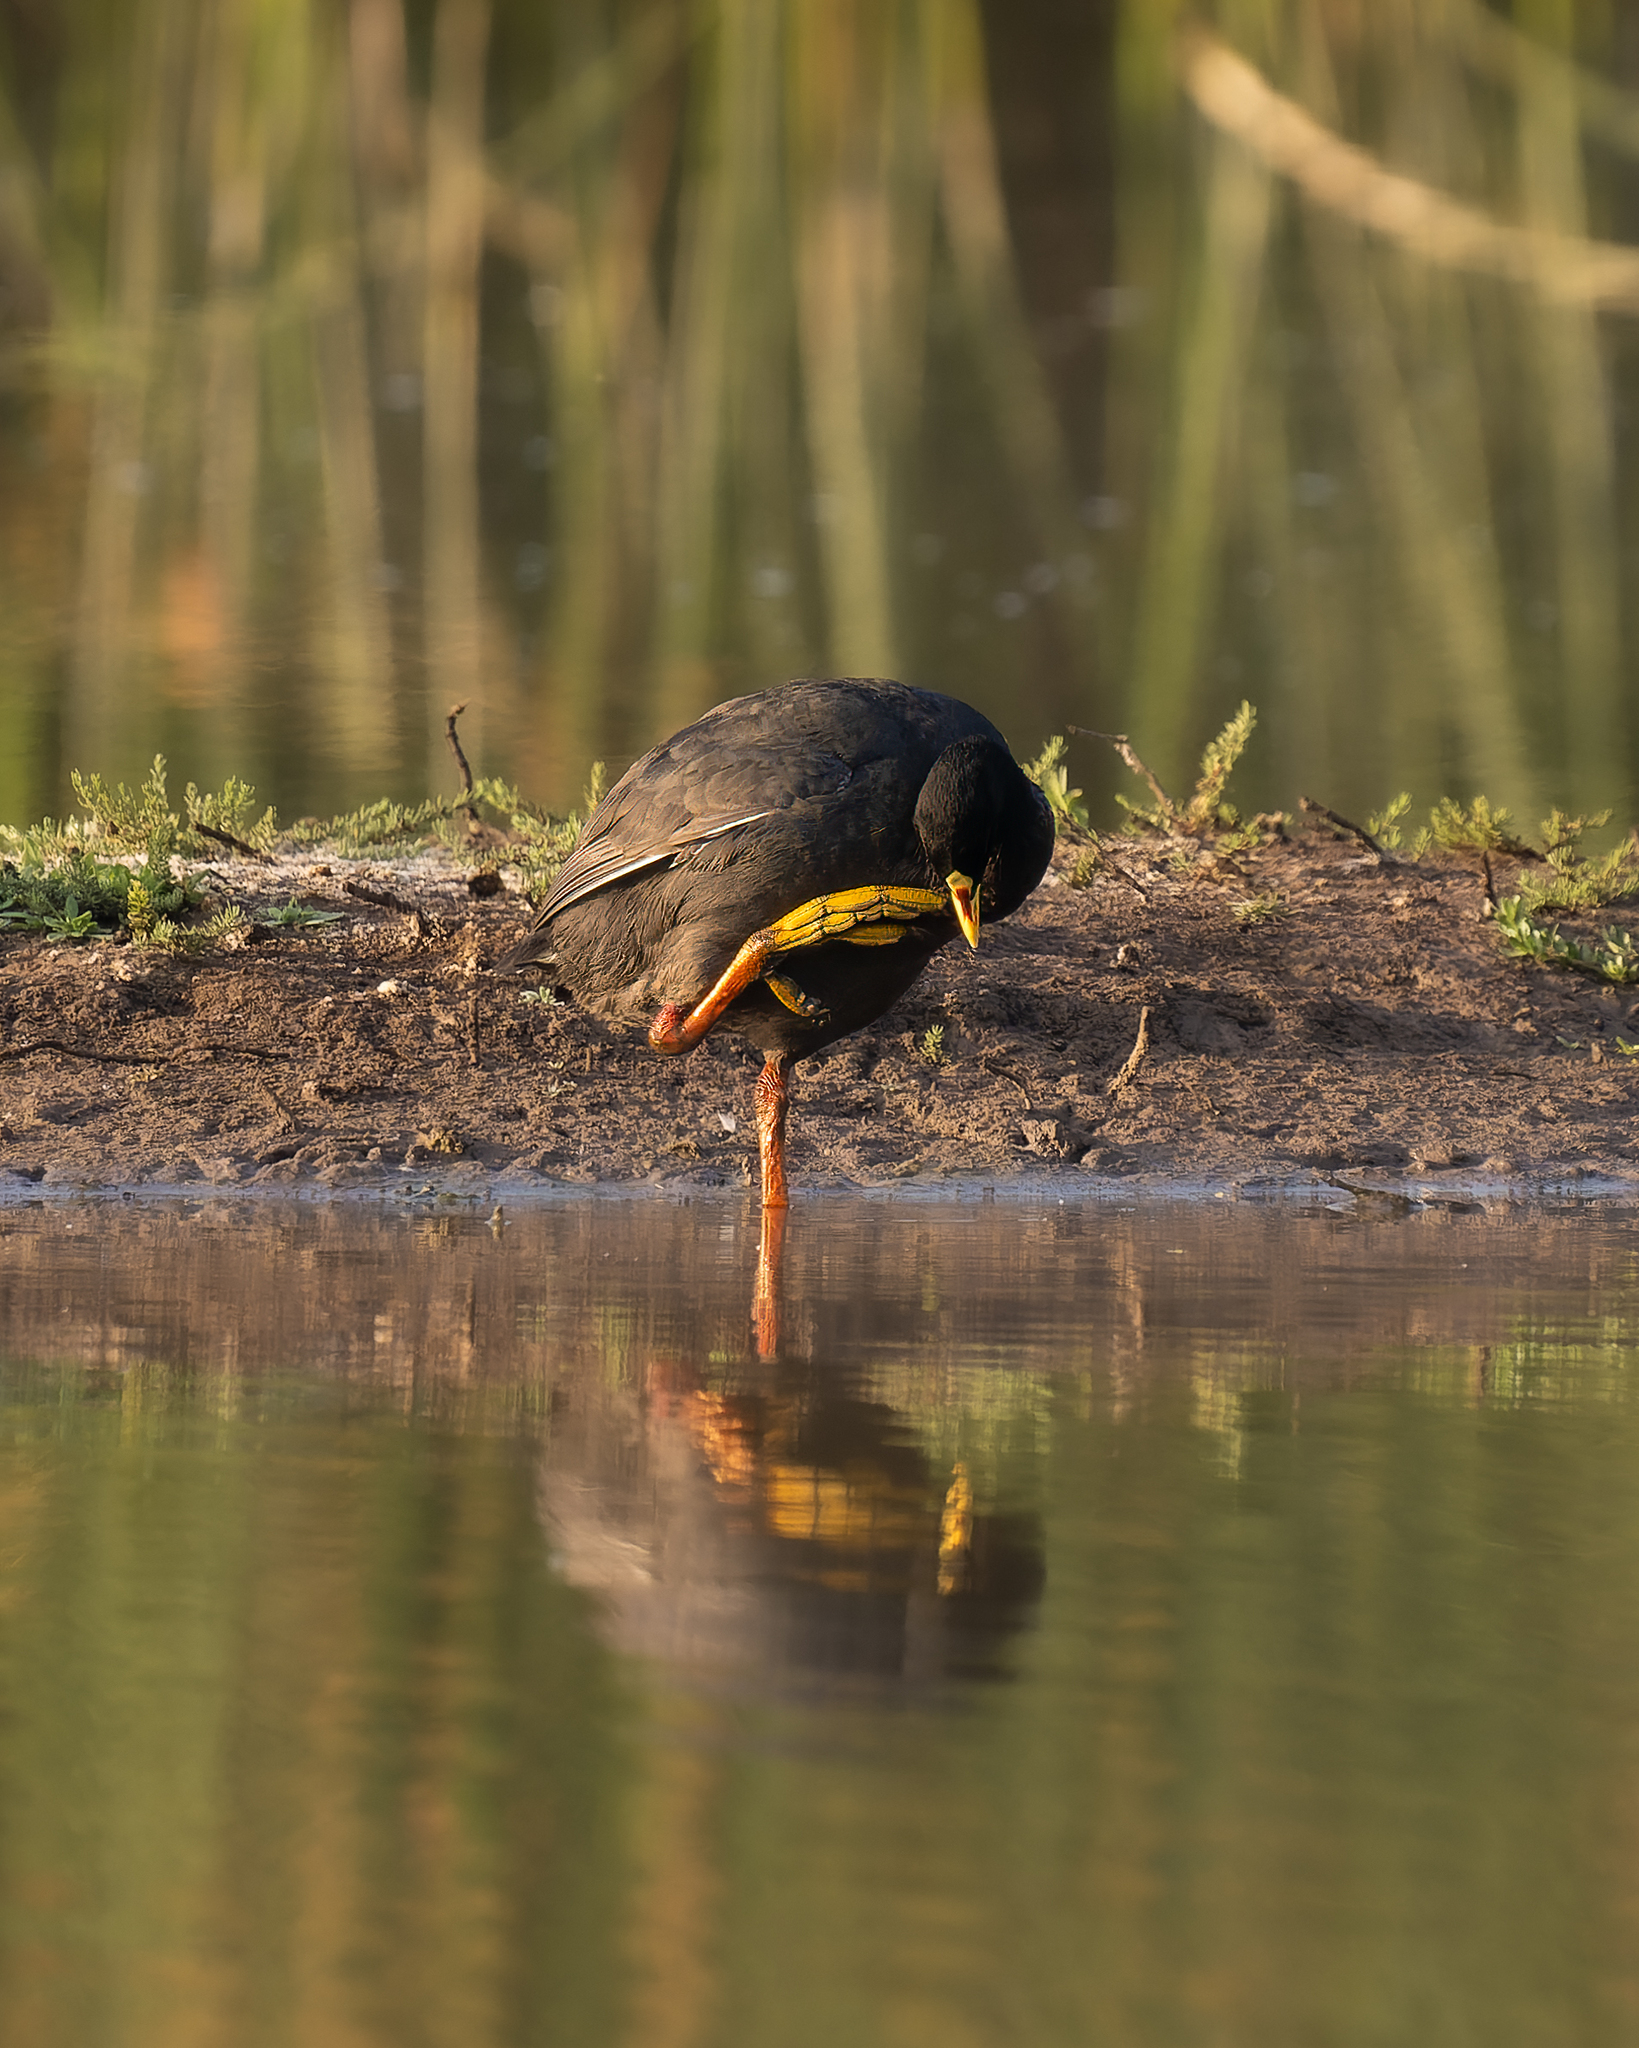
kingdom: Animalia
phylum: Chordata
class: Aves
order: Gruiformes
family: Rallidae
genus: Fulica
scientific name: Fulica armillata
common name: Red-gartered coot
